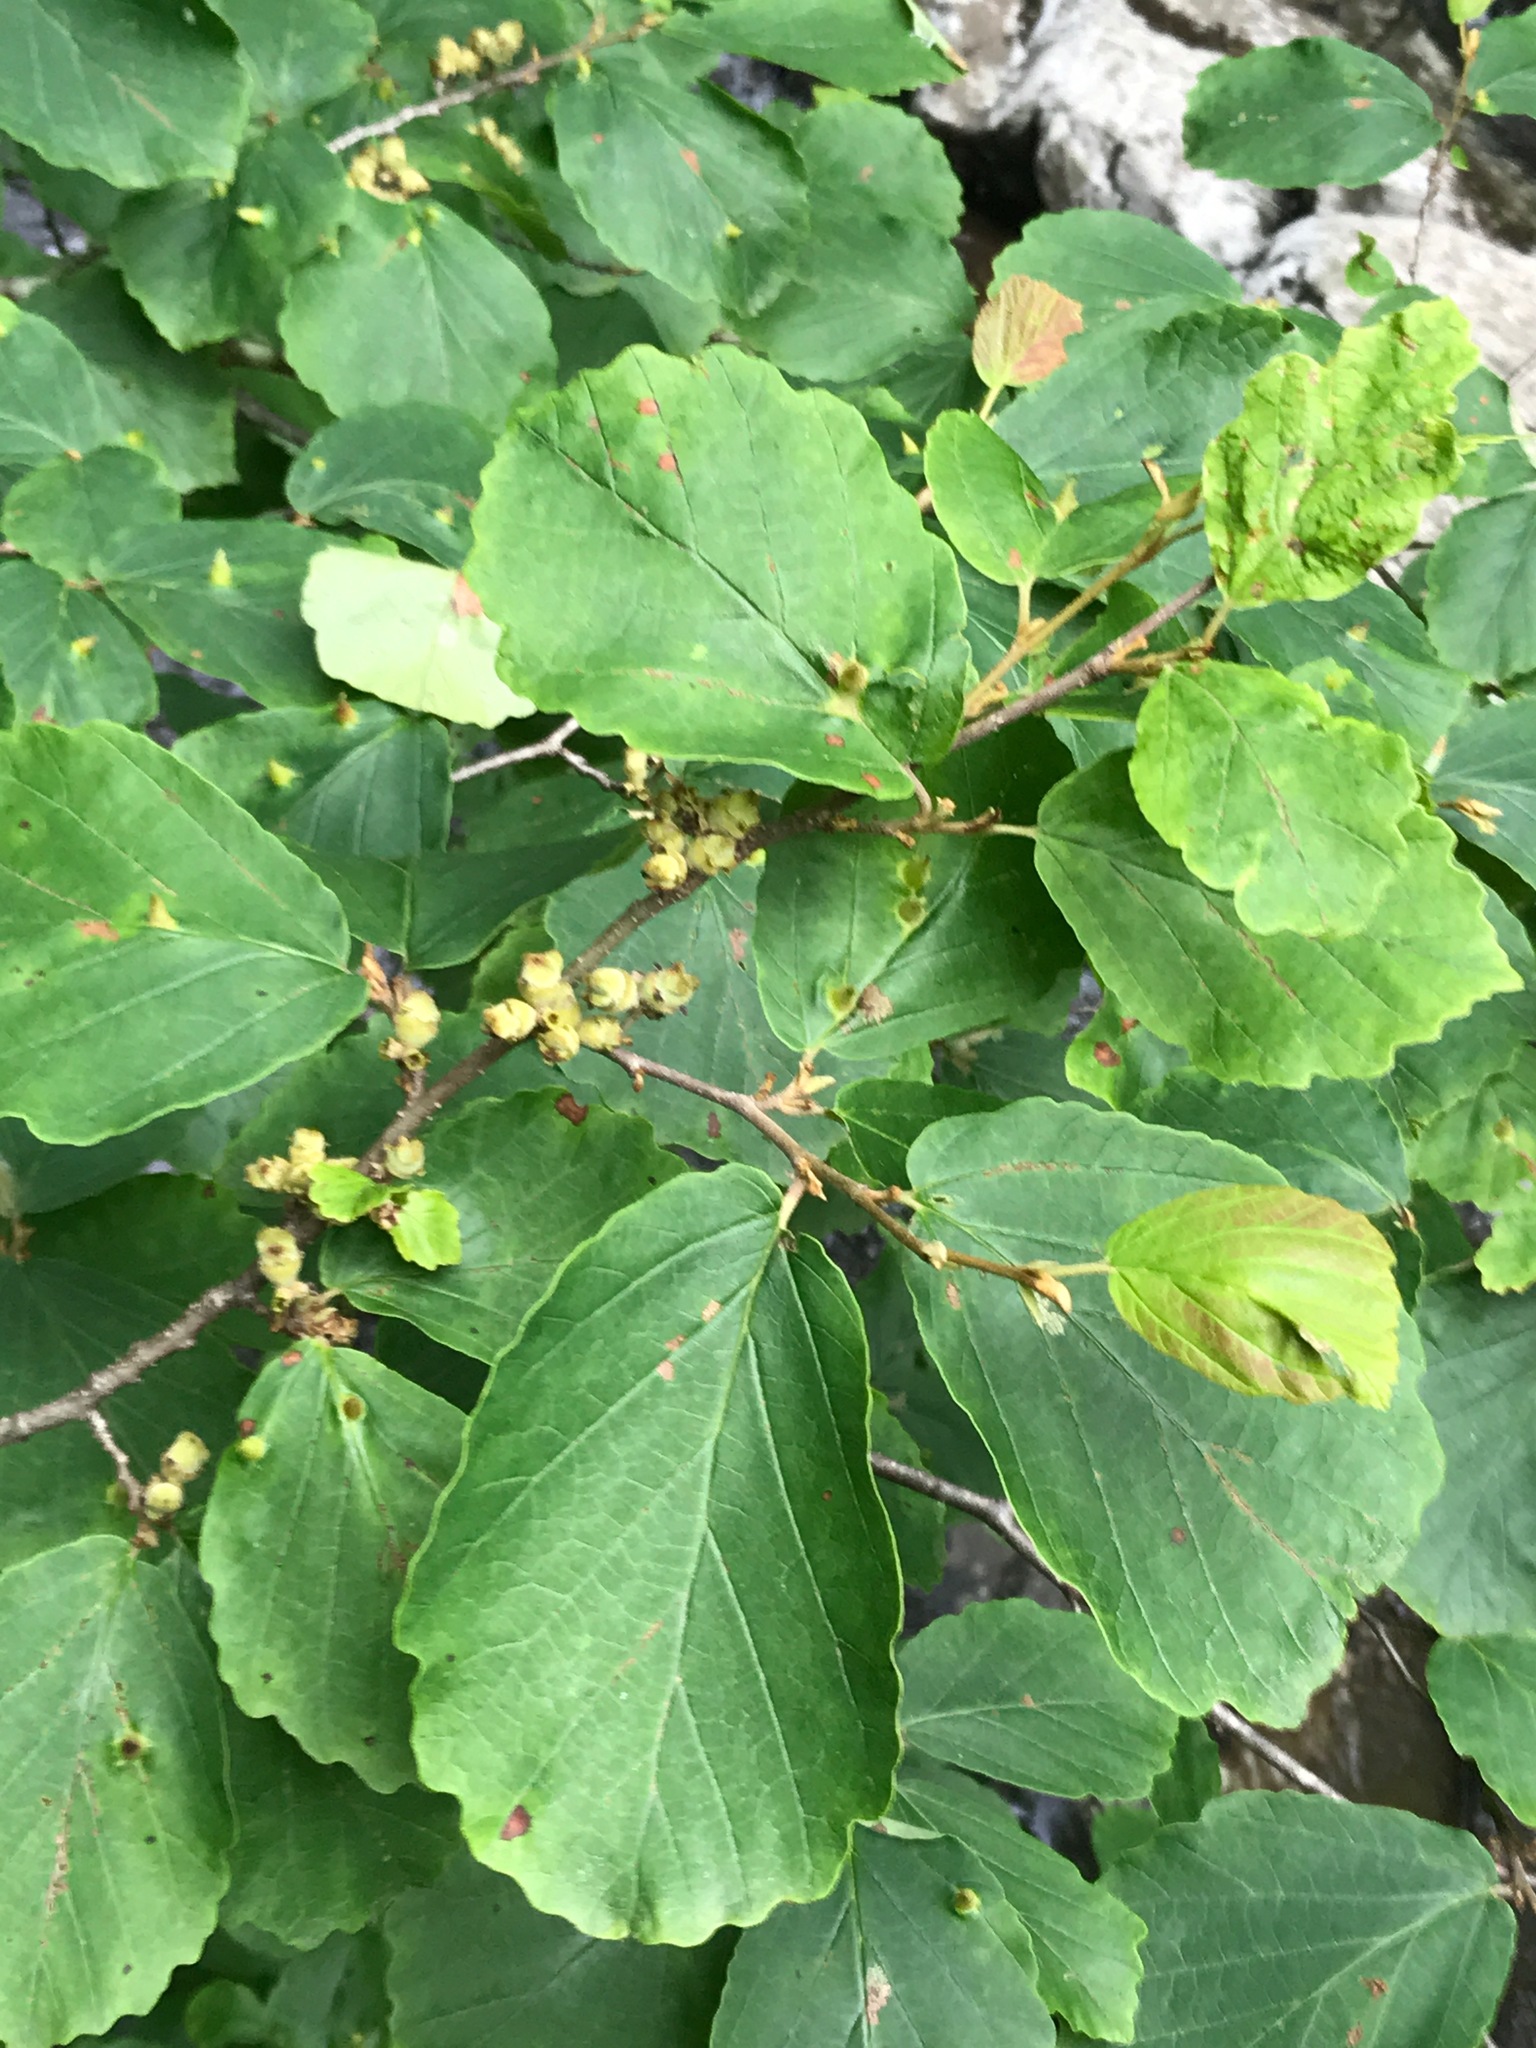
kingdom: Plantae
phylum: Tracheophyta
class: Magnoliopsida
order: Saxifragales
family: Hamamelidaceae
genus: Hamamelis
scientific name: Hamamelis virginiana
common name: Witch-hazel
